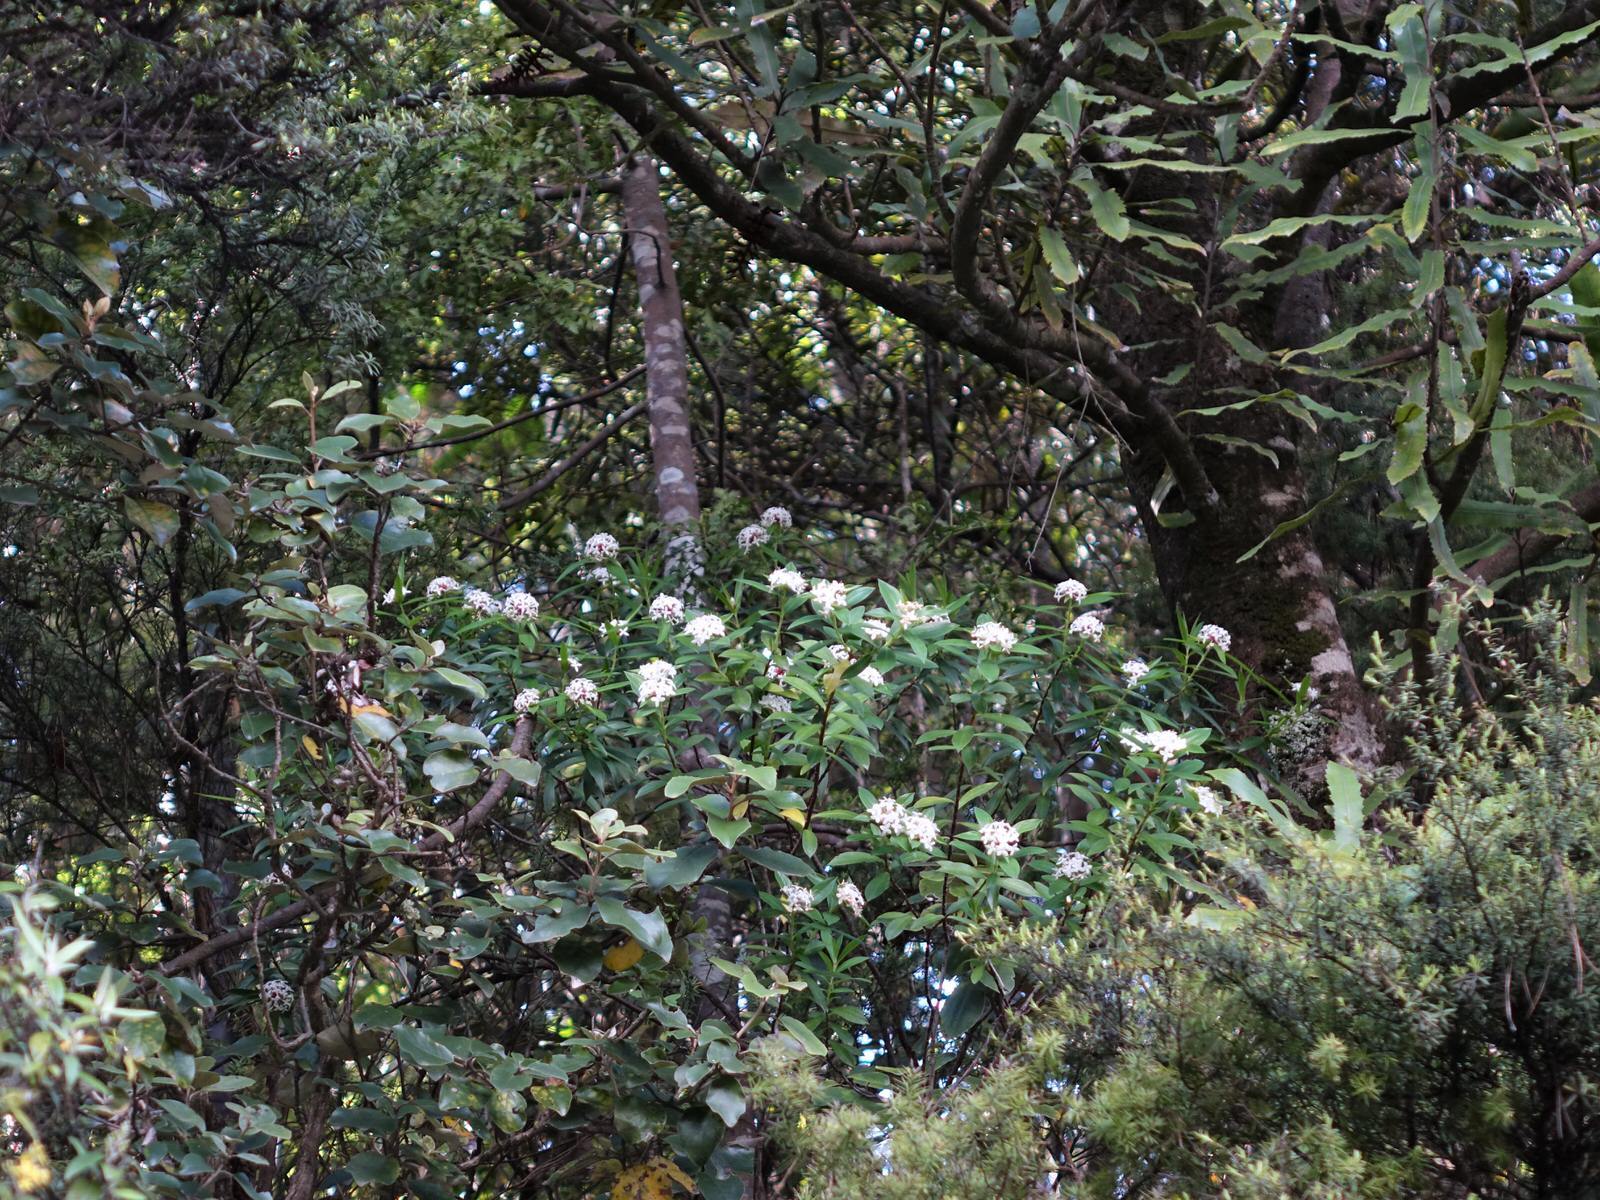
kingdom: Plantae
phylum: Tracheophyta
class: Magnoliopsida
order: Malvales
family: Thymelaeaceae
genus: Pimelea
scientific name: Pimelea longifolia
